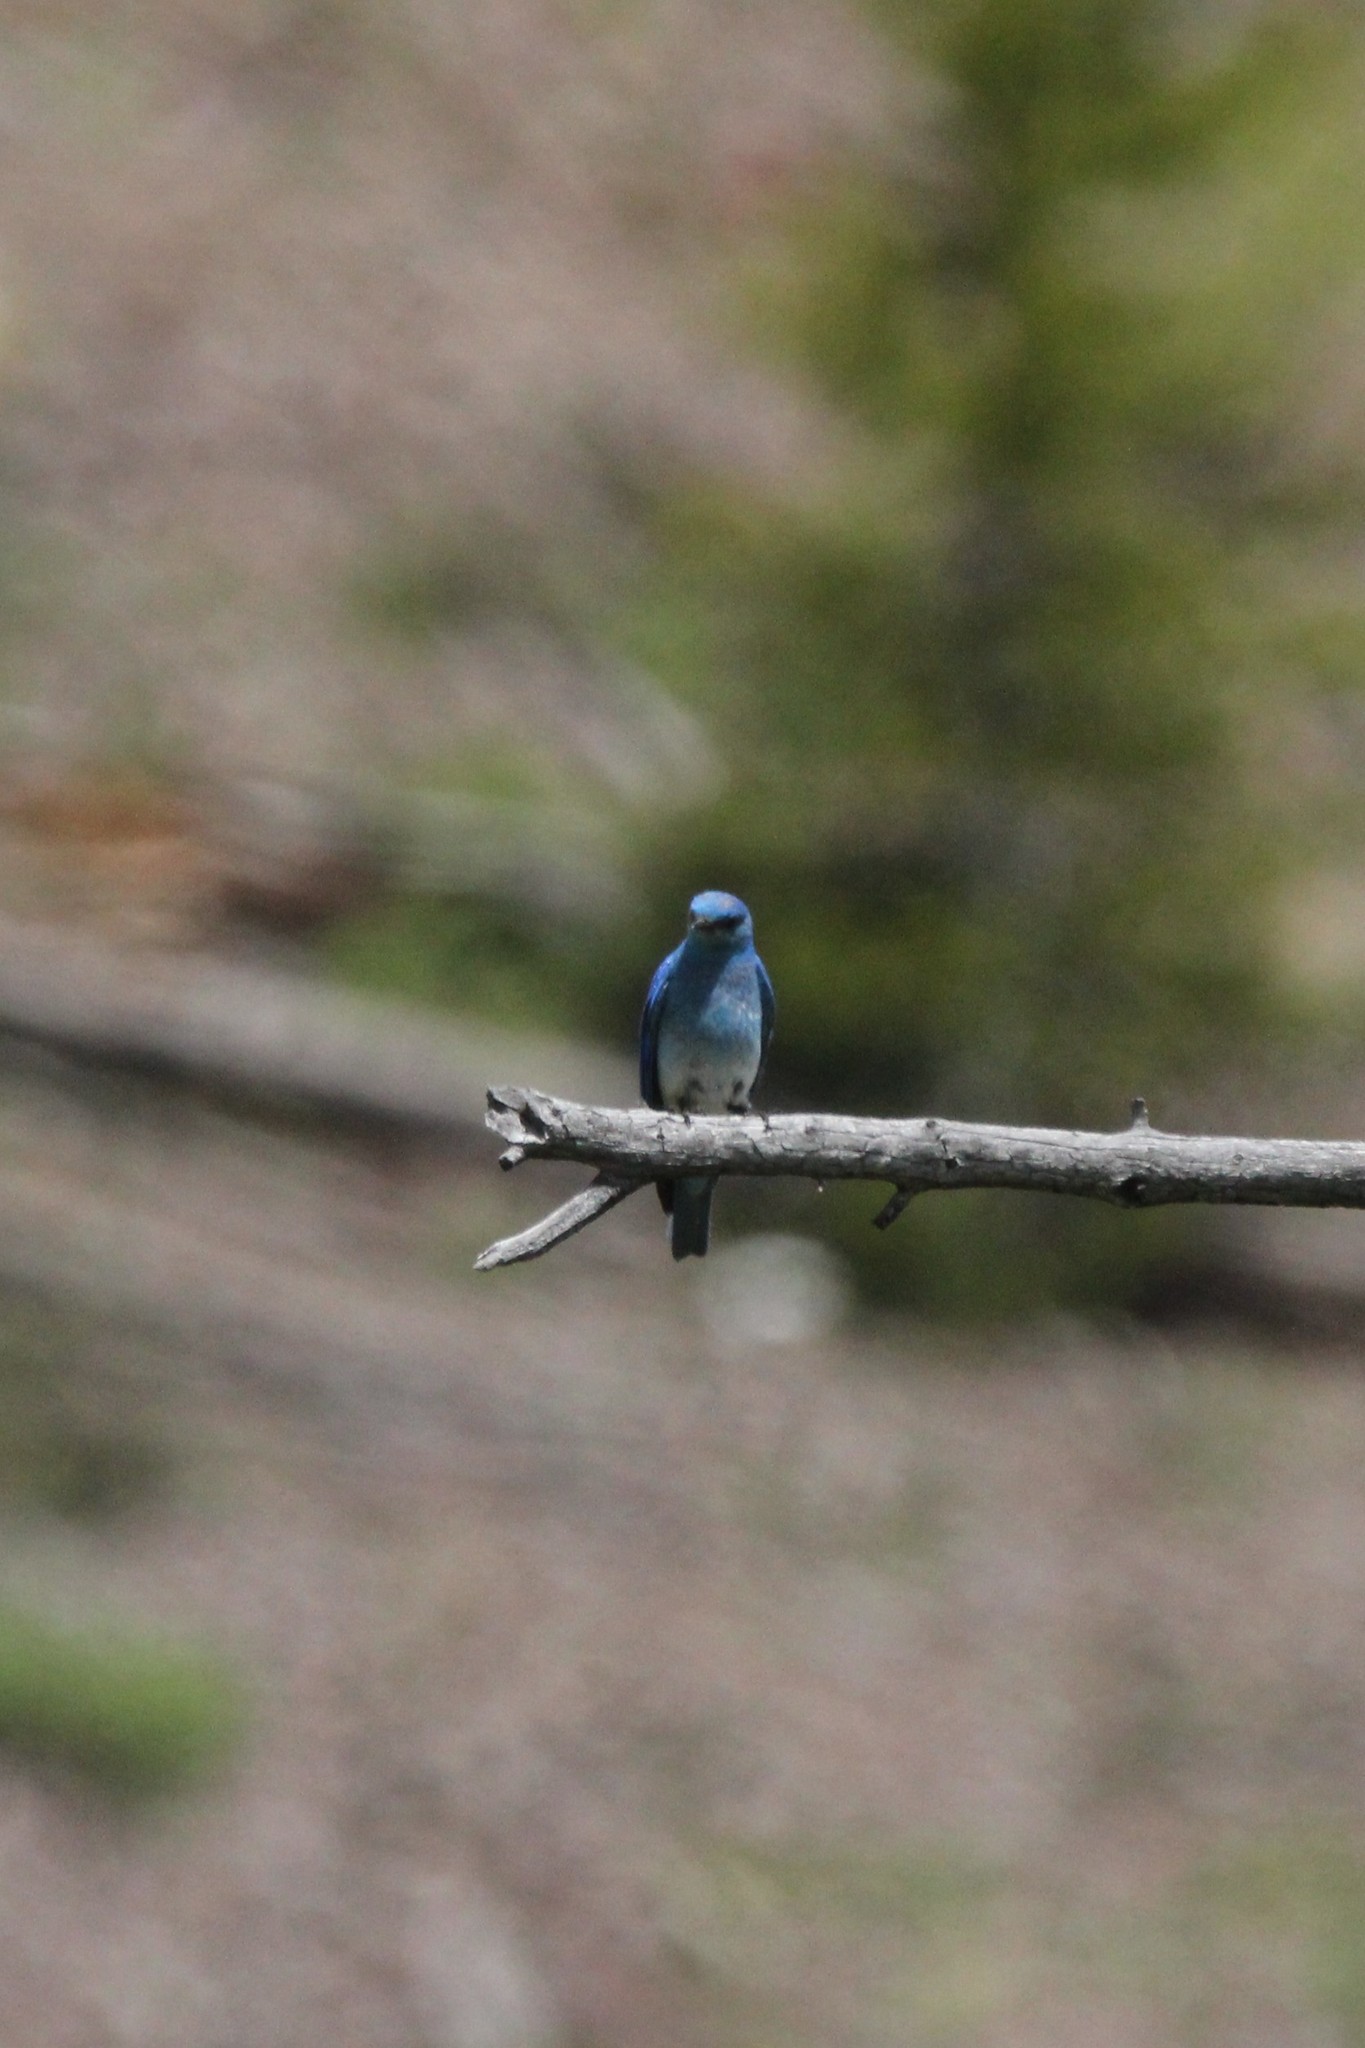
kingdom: Animalia
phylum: Chordata
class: Aves
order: Passeriformes
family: Turdidae
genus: Sialia
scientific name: Sialia currucoides
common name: Mountain bluebird
